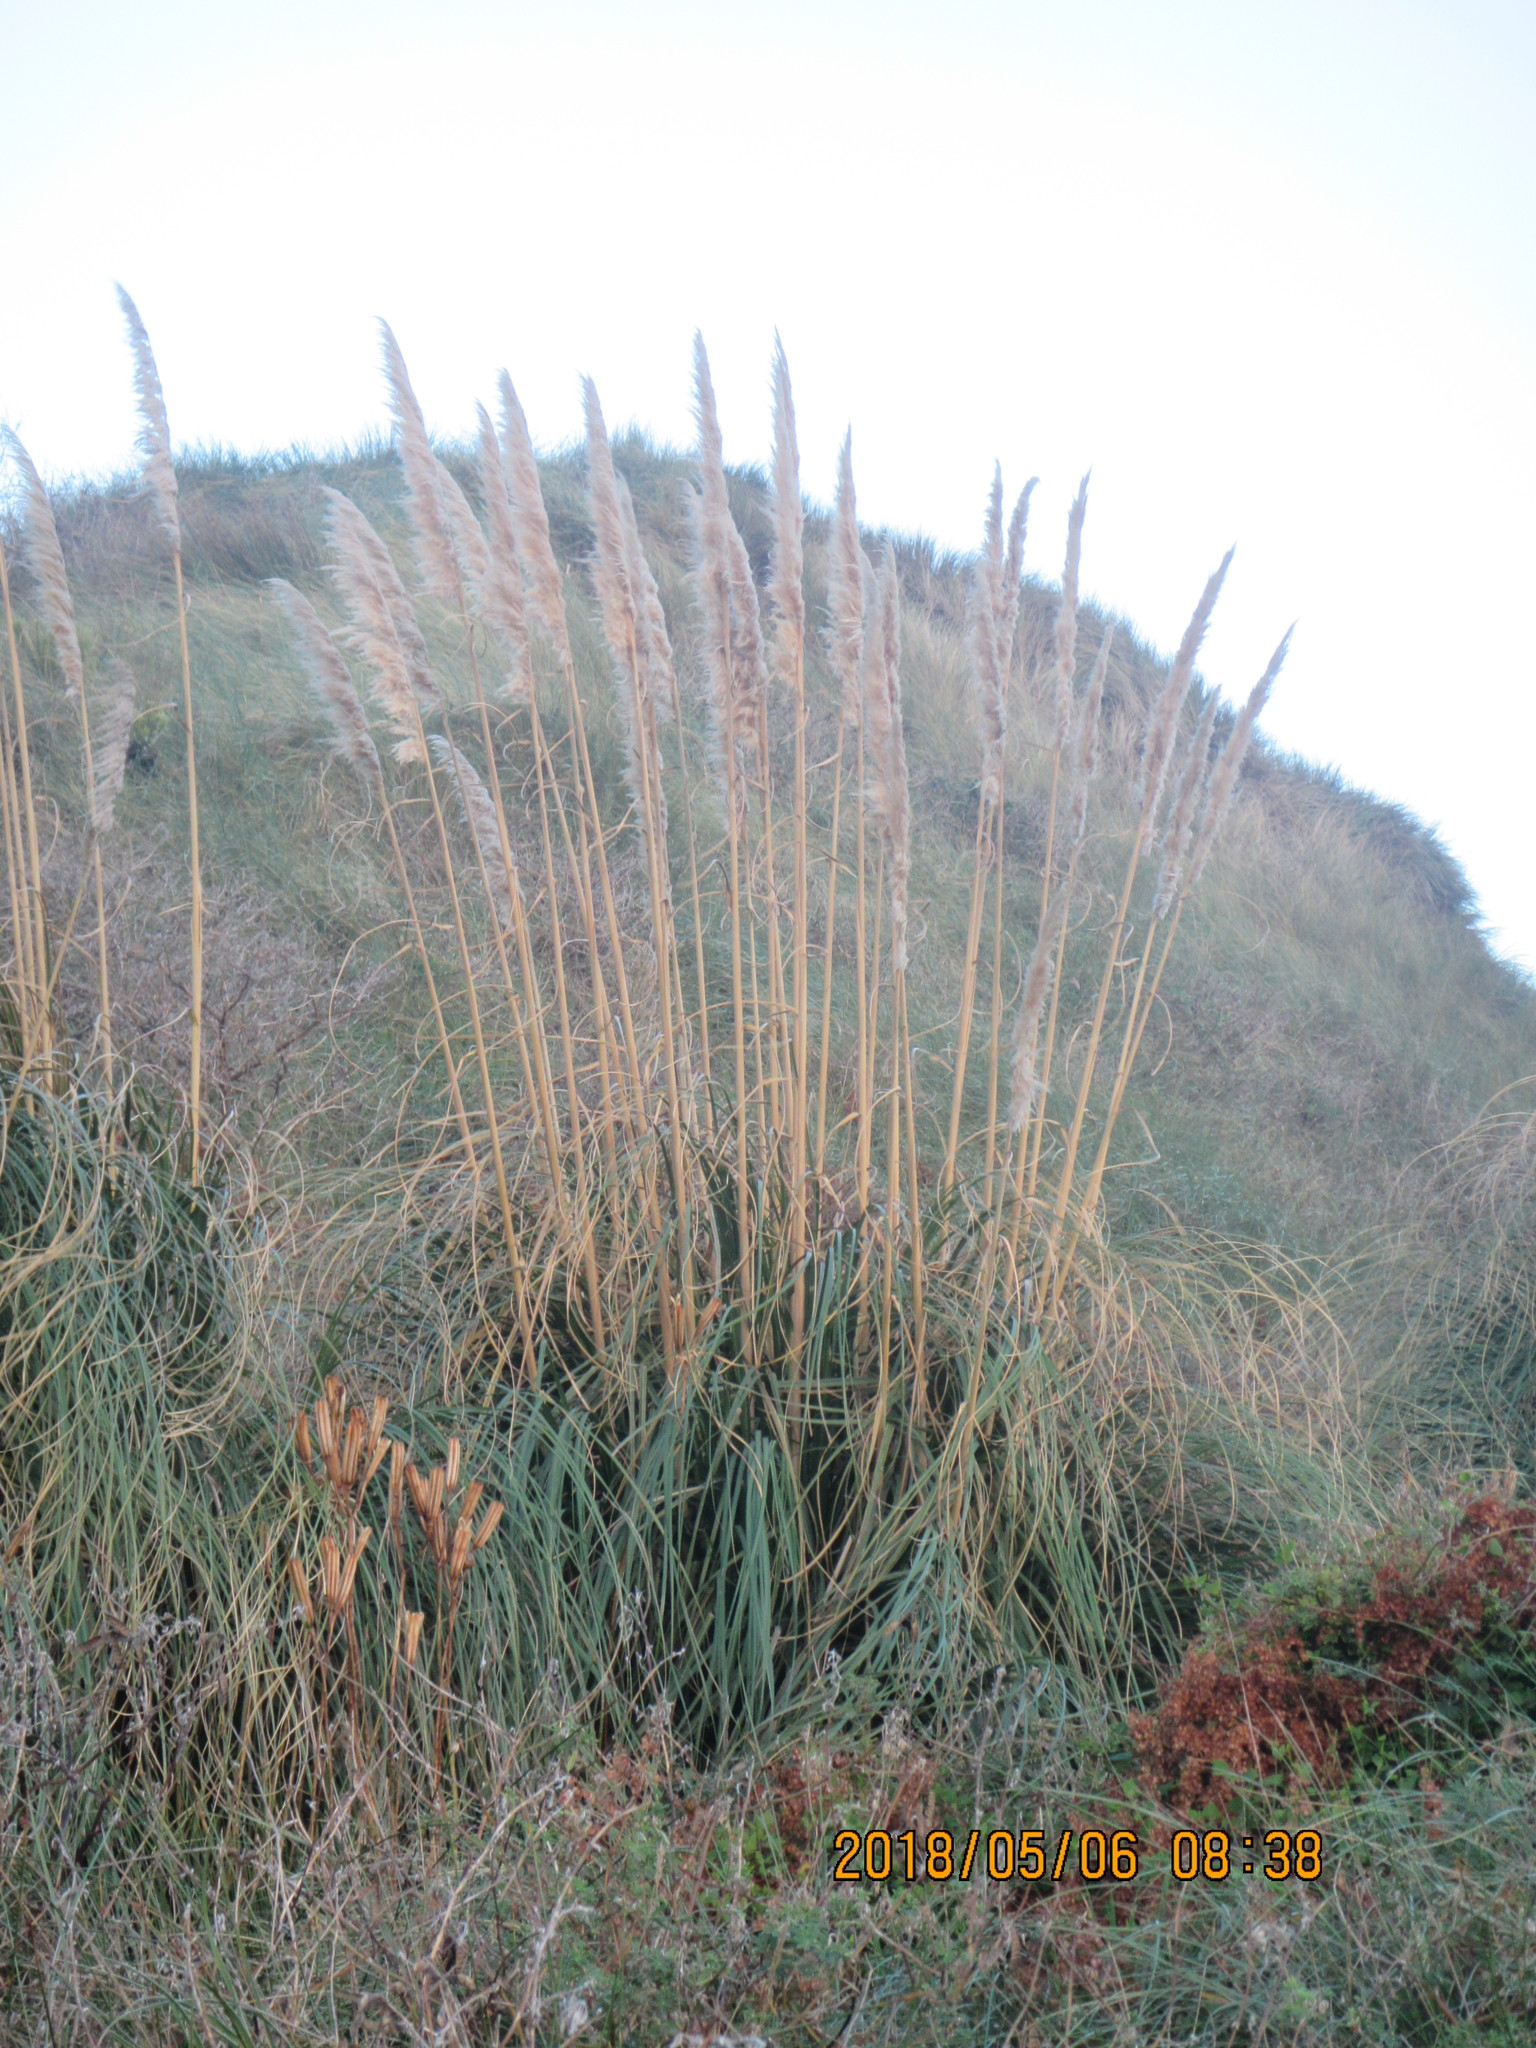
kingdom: Plantae
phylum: Tracheophyta
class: Liliopsida
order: Poales
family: Poaceae
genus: Cortaderia
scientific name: Cortaderia selloana
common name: Uruguayan pampas grass
